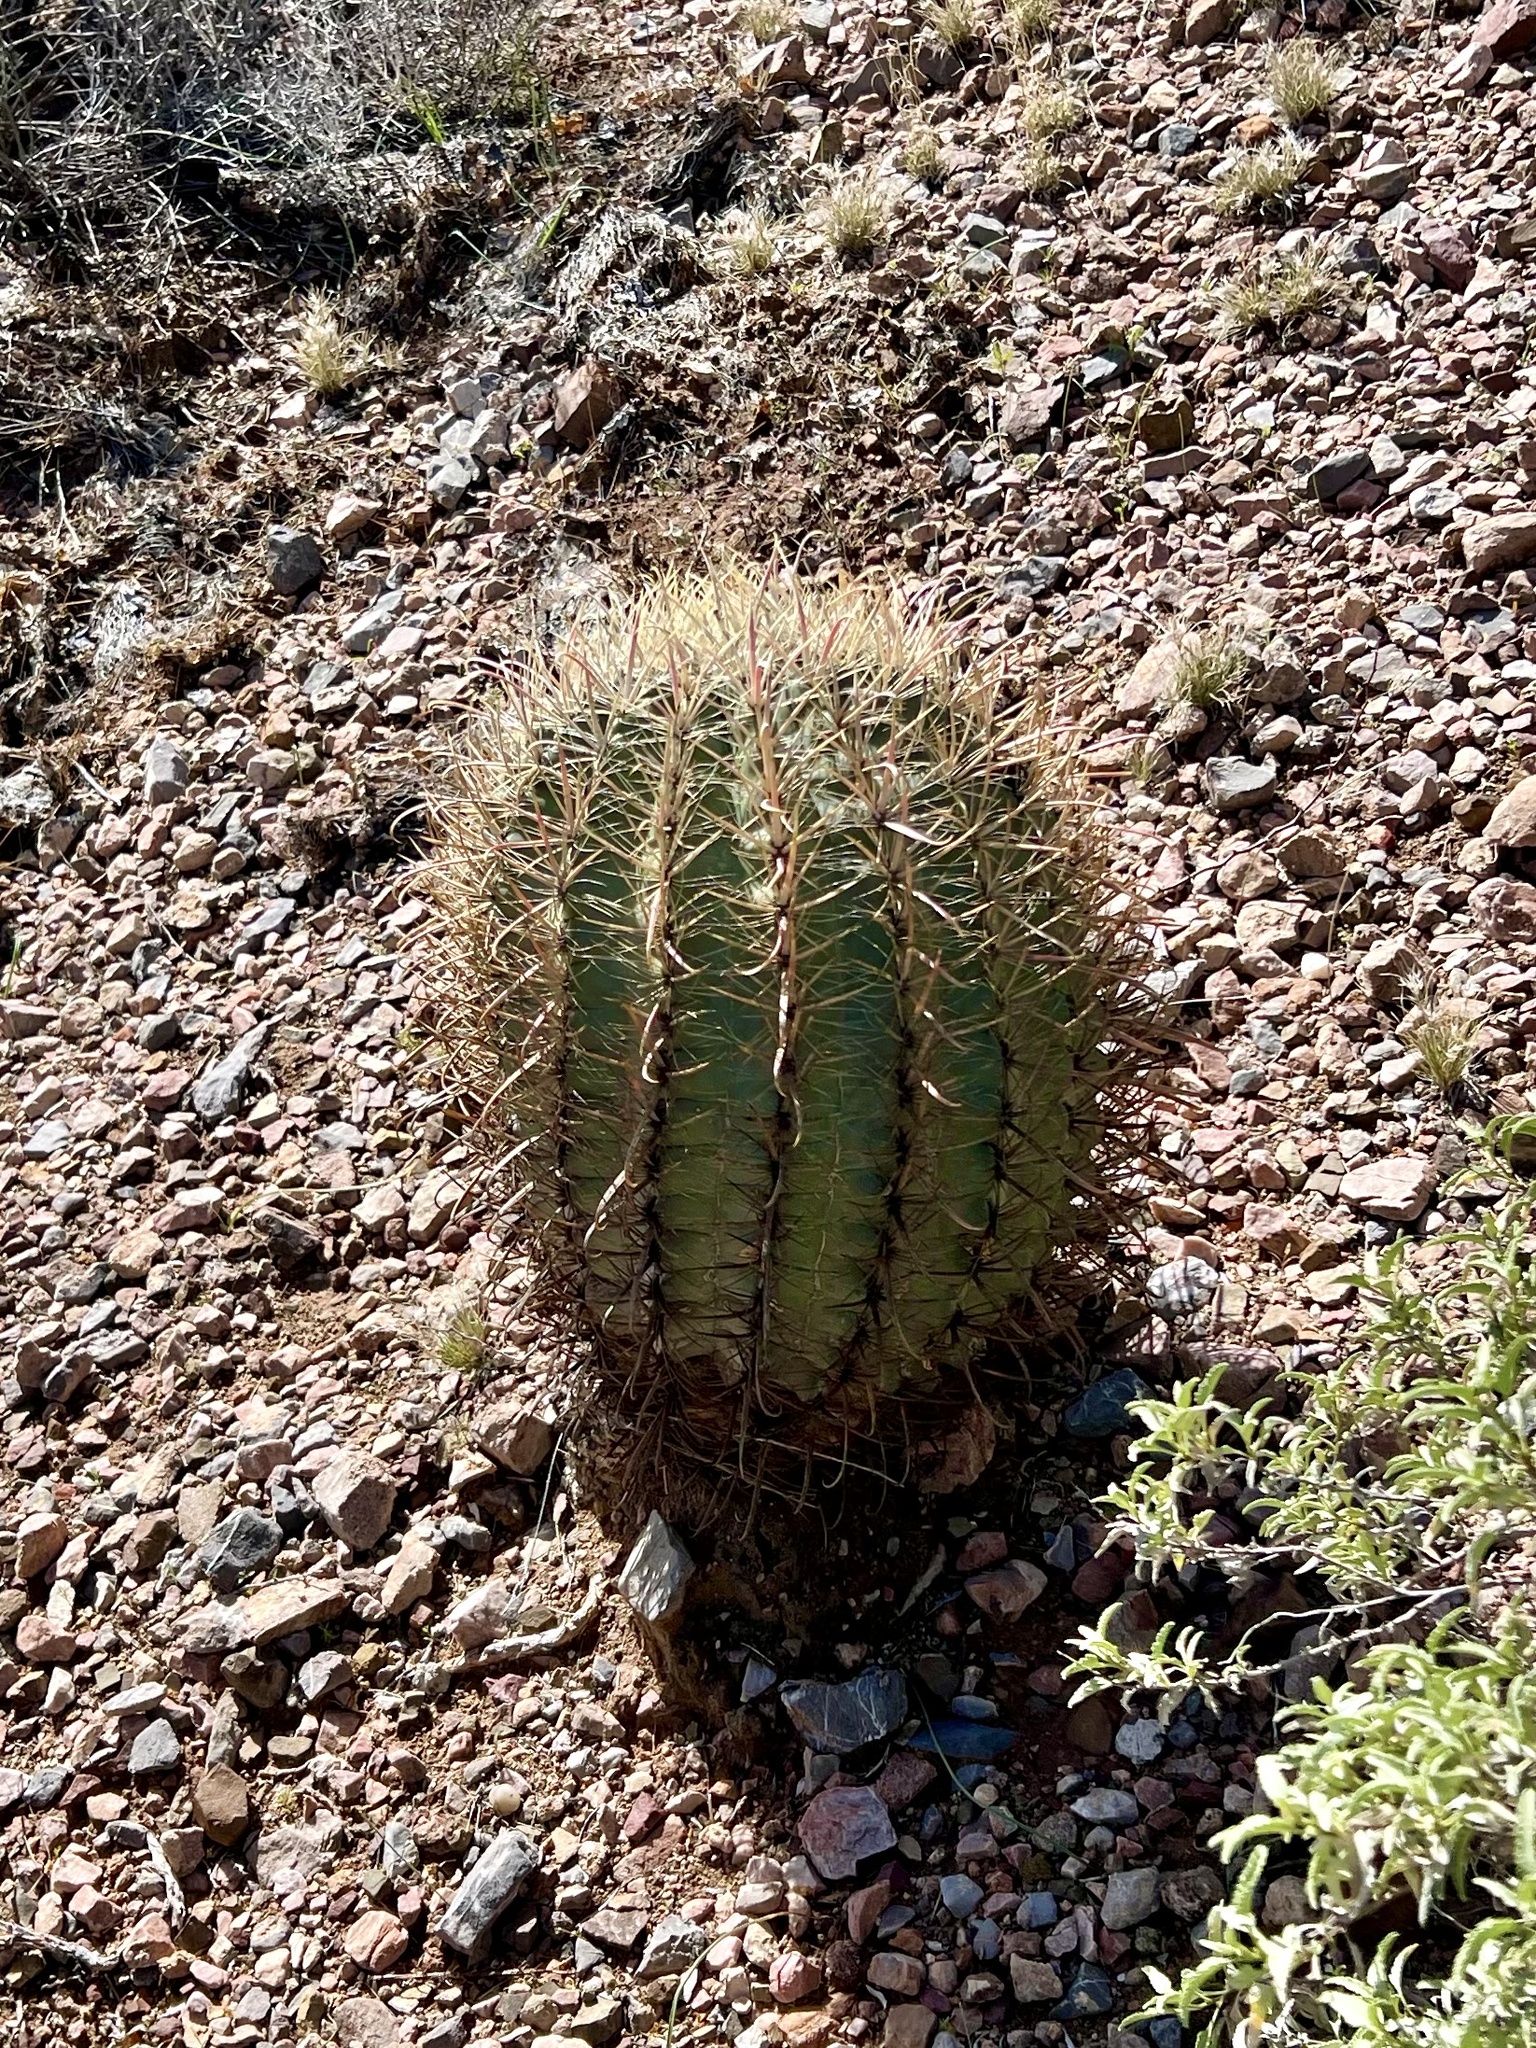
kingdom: Plantae
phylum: Tracheophyta
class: Magnoliopsida
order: Caryophyllales
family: Cactaceae
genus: Ferocactus
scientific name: Ferocactus wislizeni
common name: Candy barrel cactus
